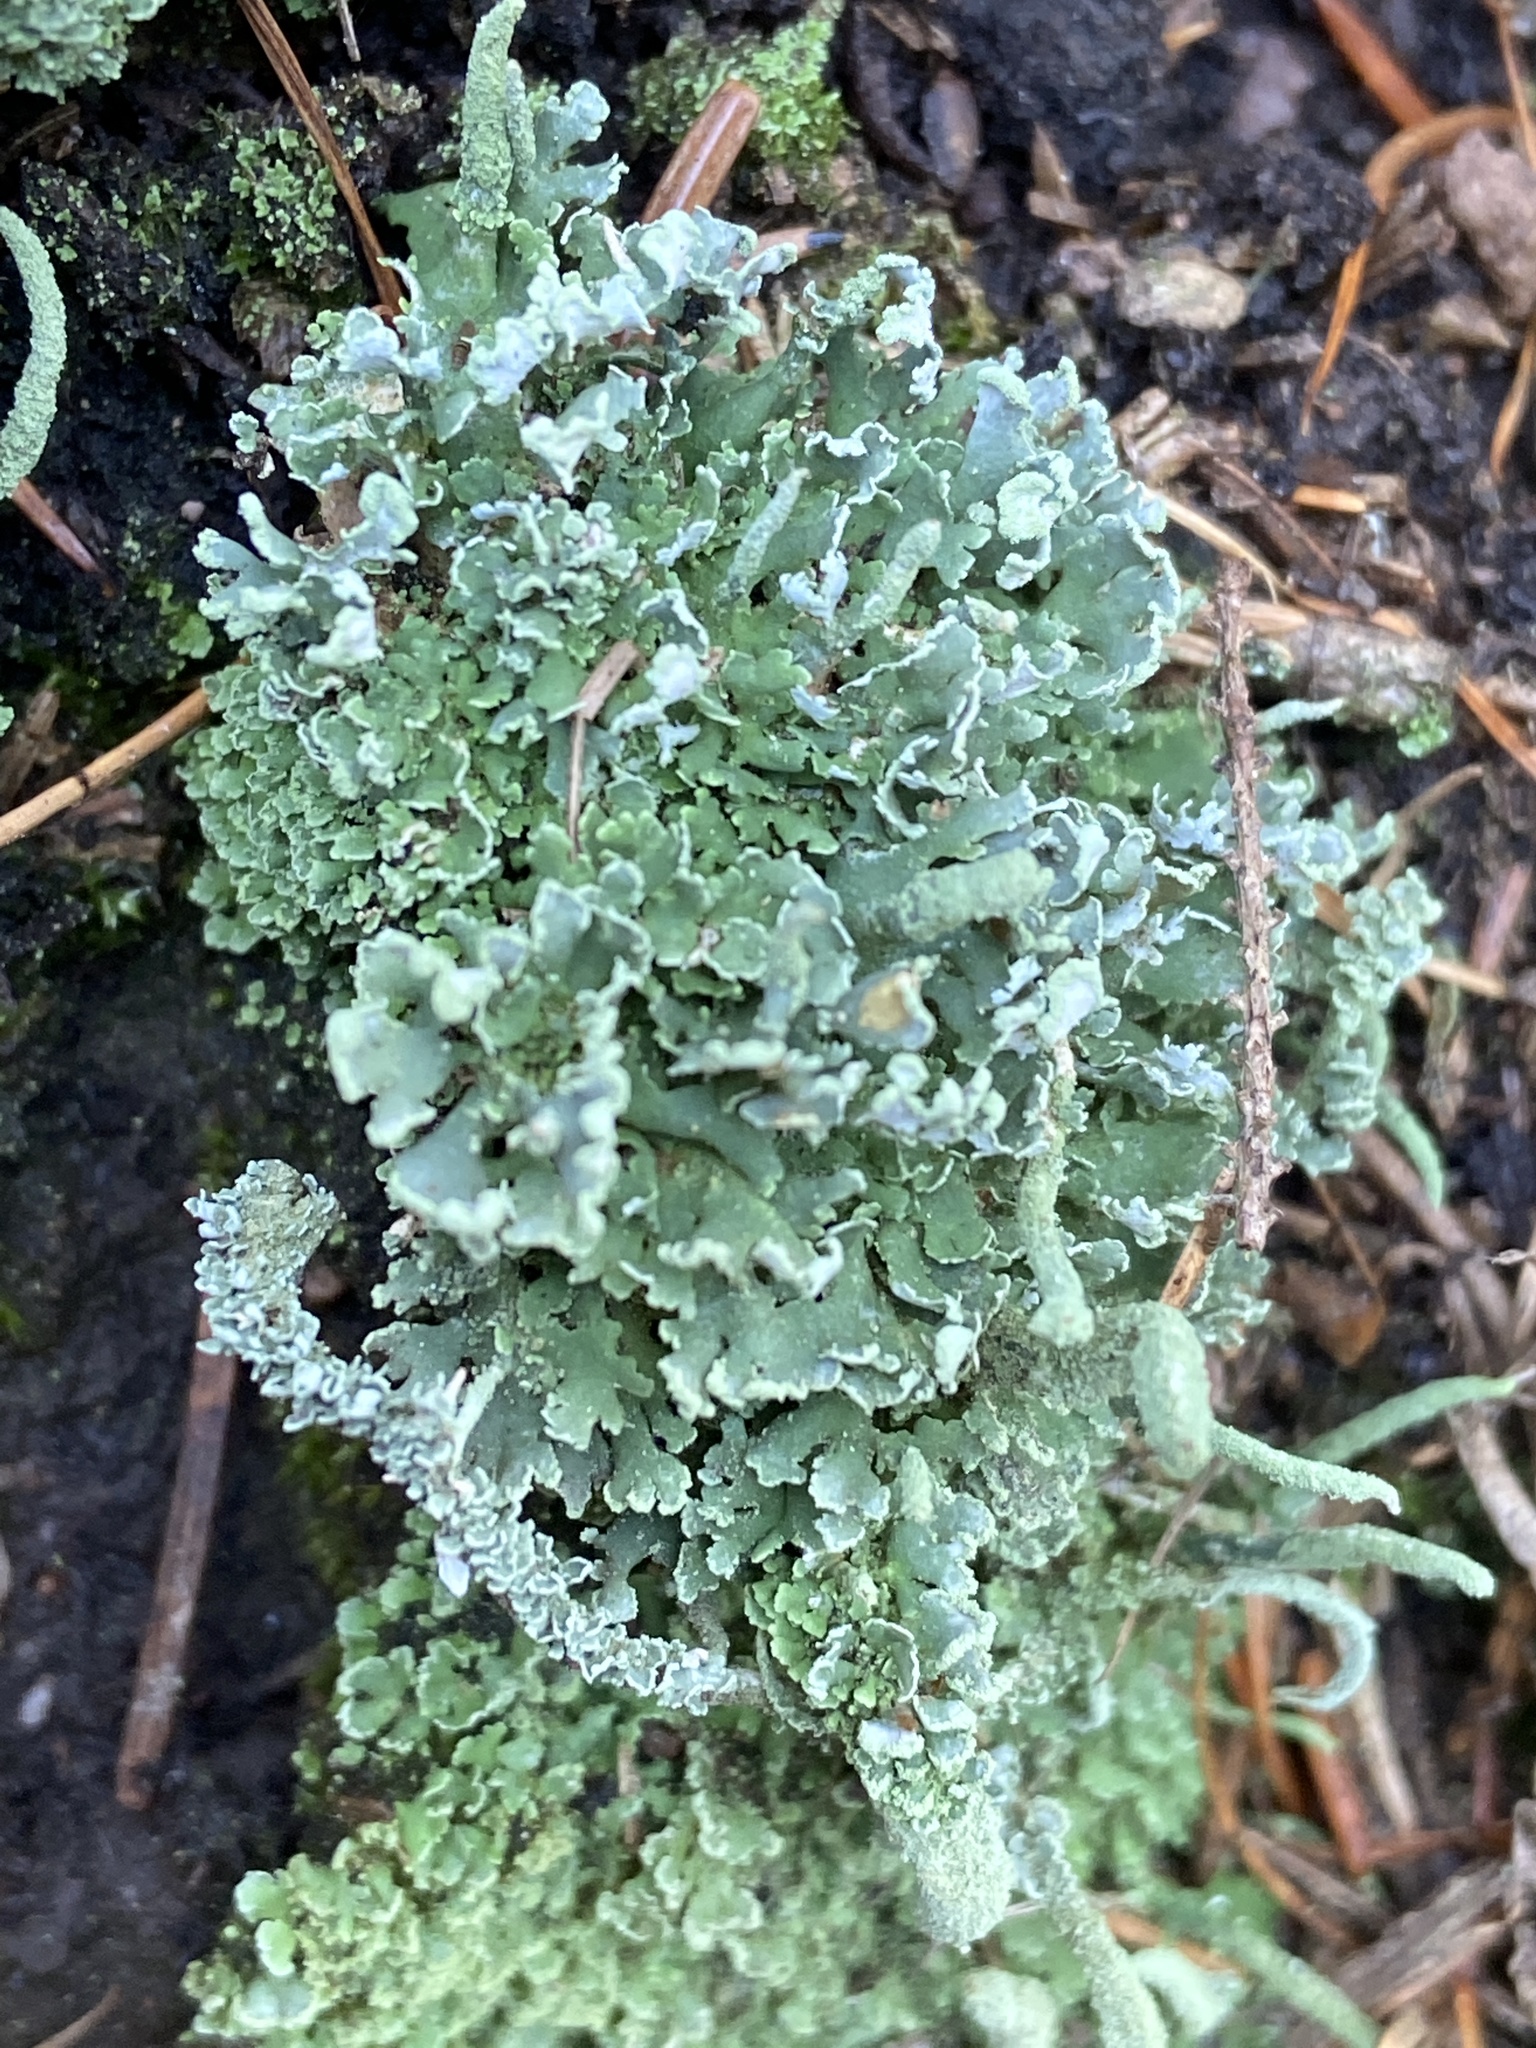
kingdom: Fungi
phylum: Ascomycota
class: Lecanoromycetes
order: Lecanorales
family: Cladoniaceae
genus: Cladonia
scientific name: Cladonia coniocraea
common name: Common powderhorn
